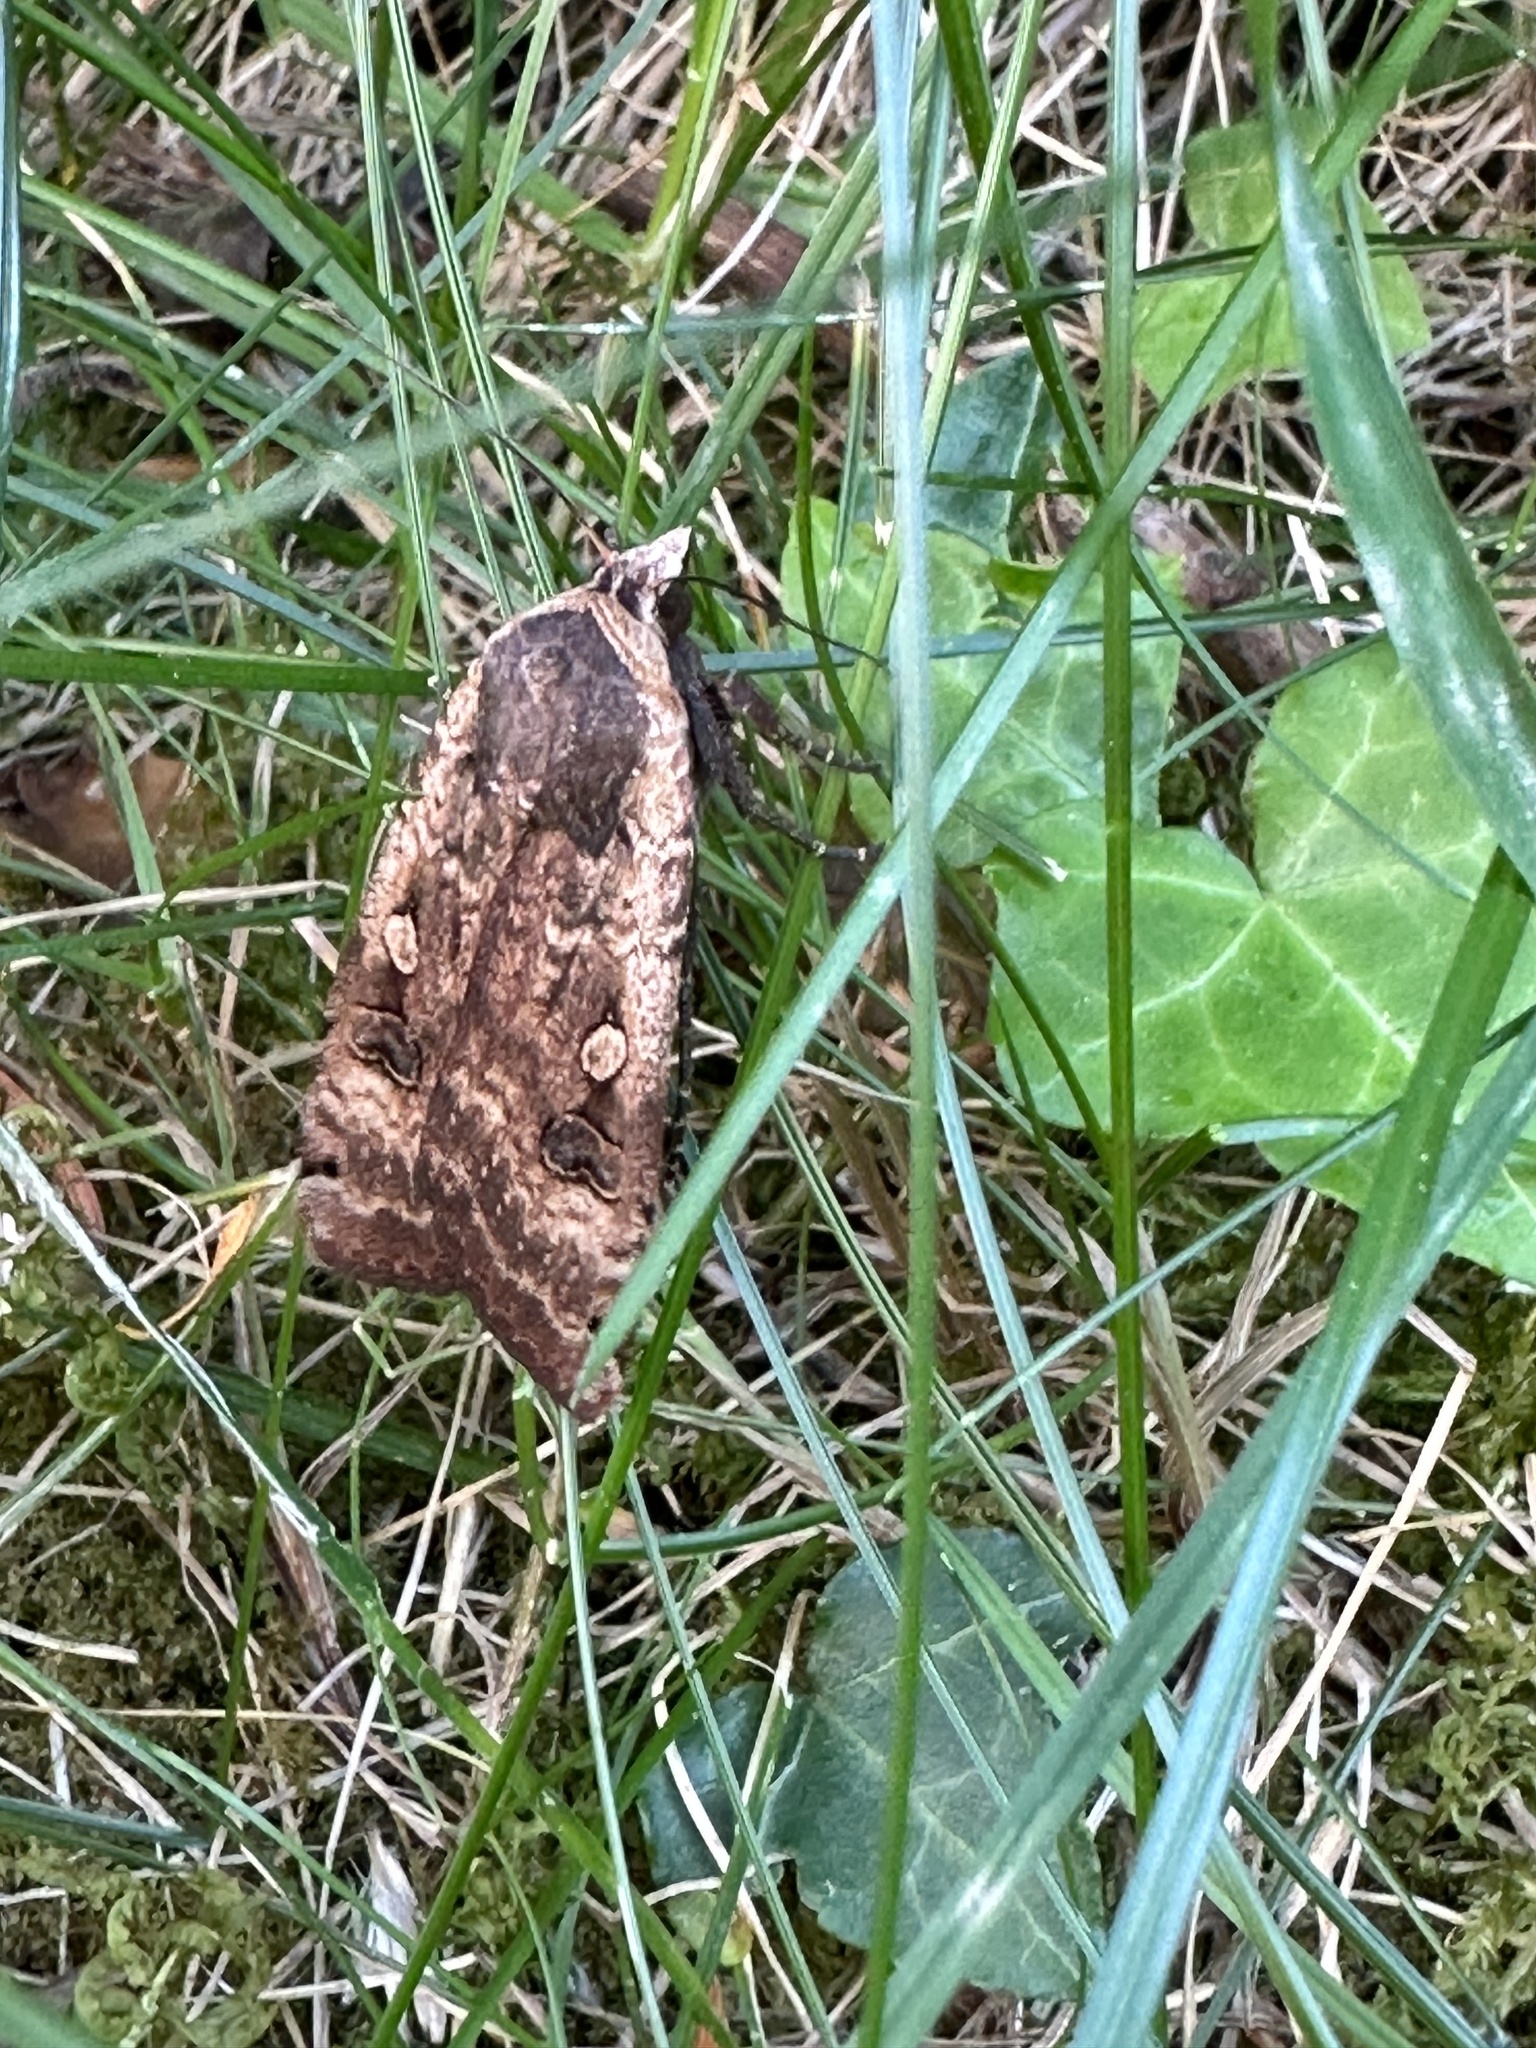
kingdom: Animalia
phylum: Arthropoda
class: Insecta
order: Lepidoptera
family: Noctuidae
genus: Noctua
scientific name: Noctua pronuba
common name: Large yellow underwing
